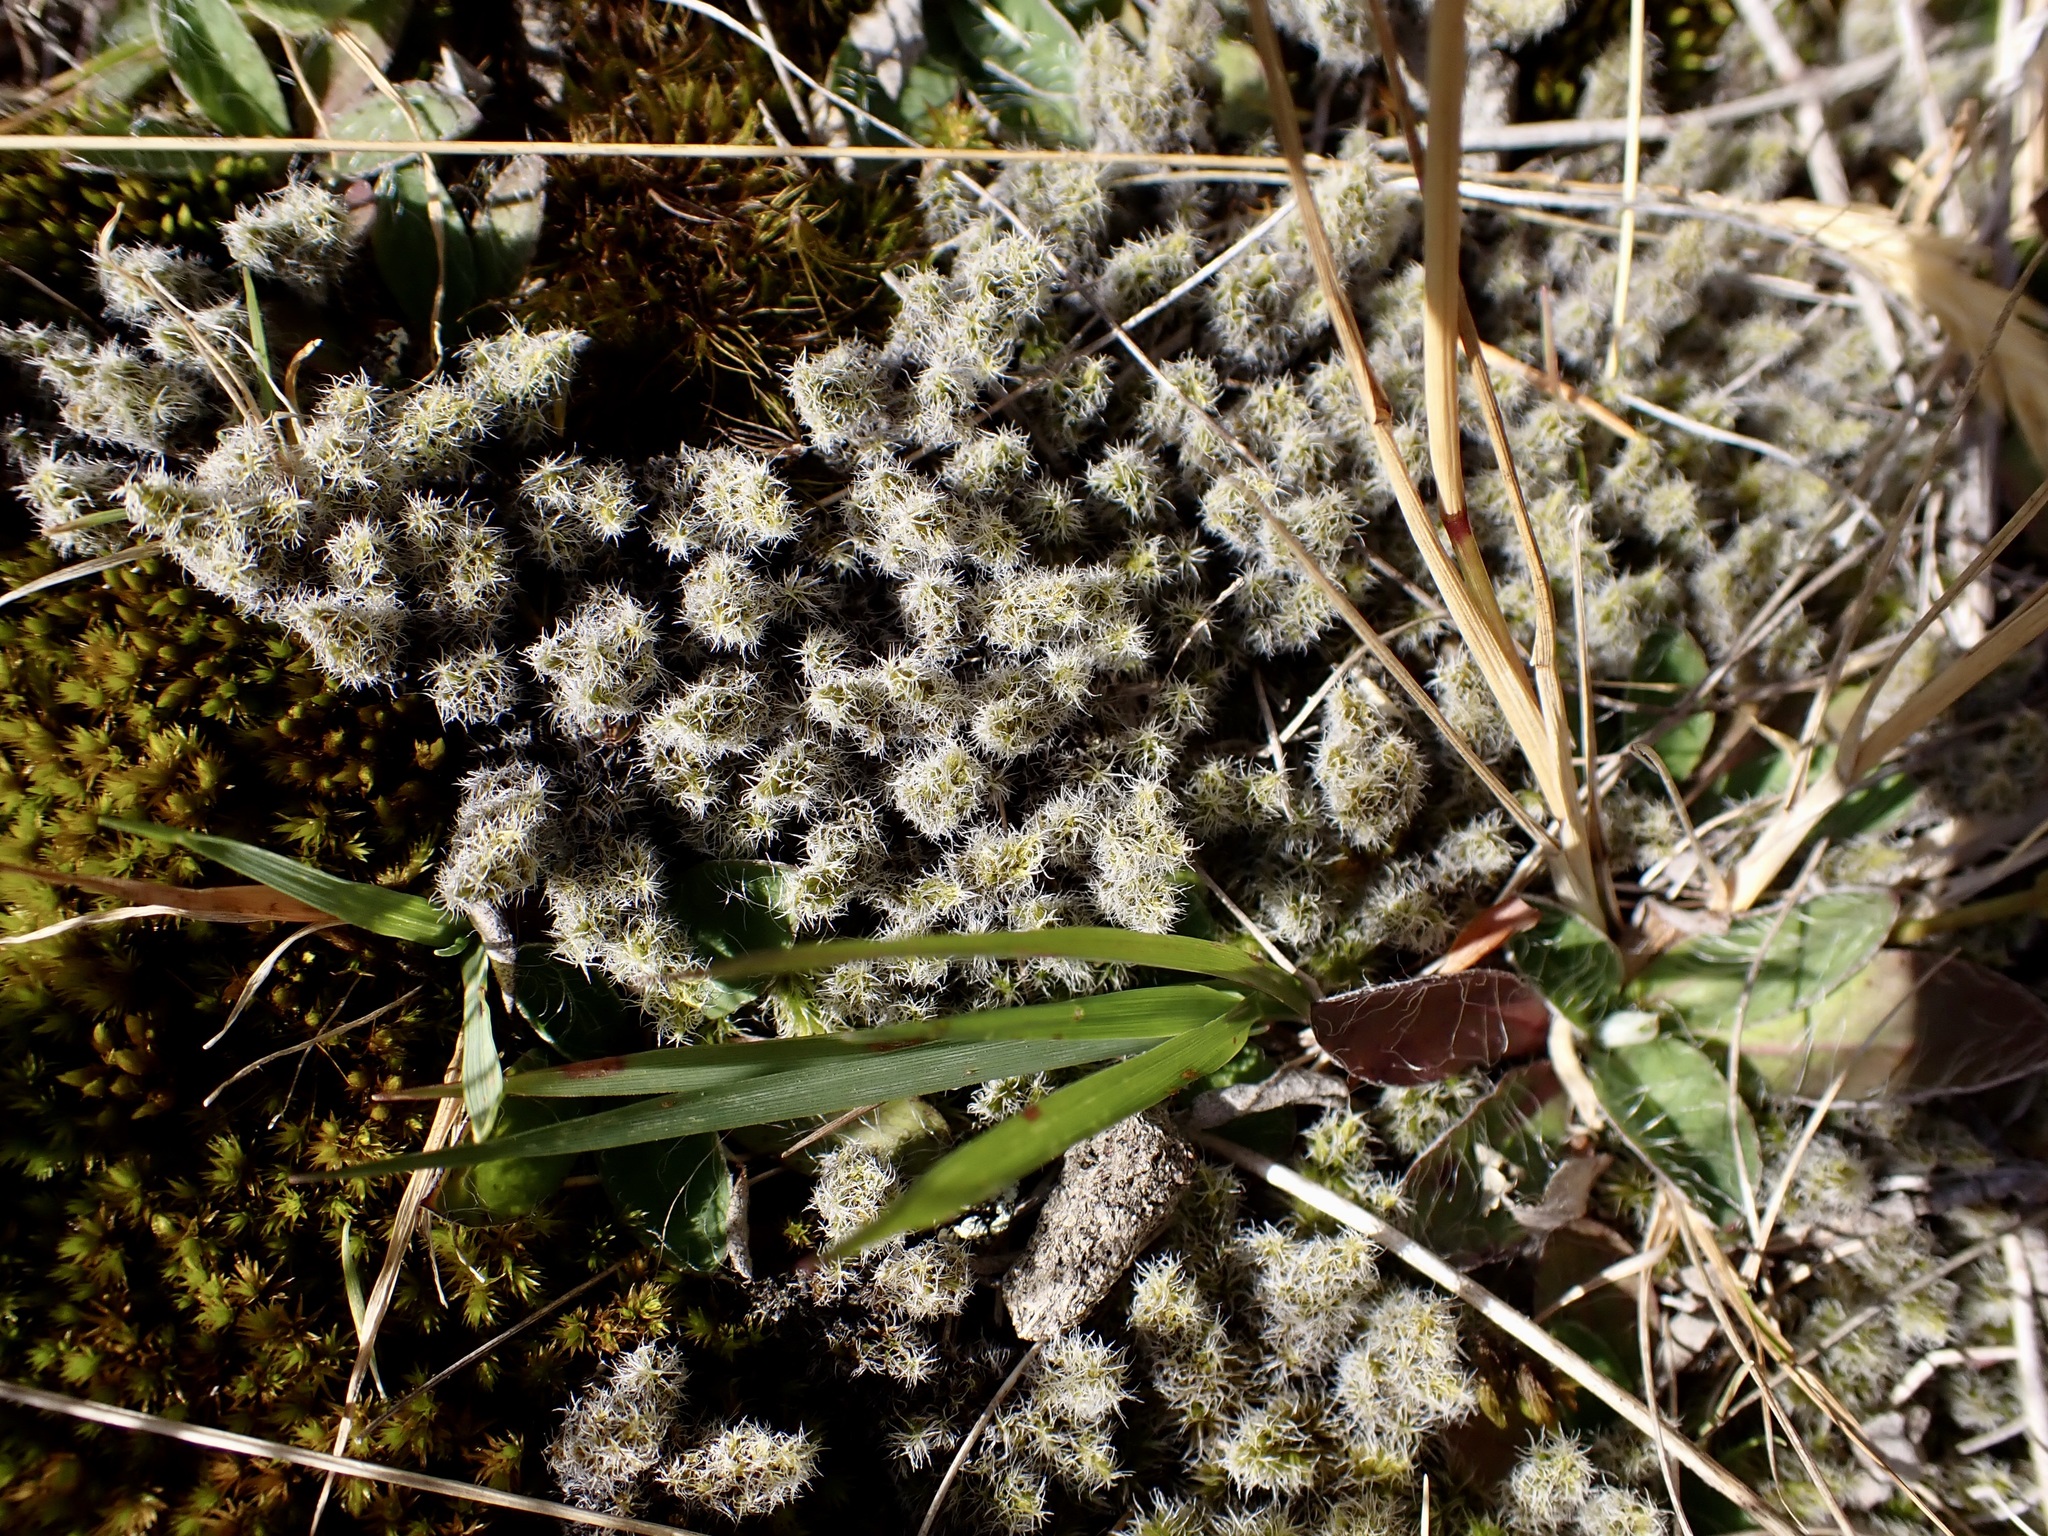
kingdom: Plantae
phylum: Bryophyta
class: Bryopsida
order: Grimmiales
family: Grimmiaceae
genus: Racomitrium
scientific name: Racomitrium lanuginosum
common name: Hoary rock moss
